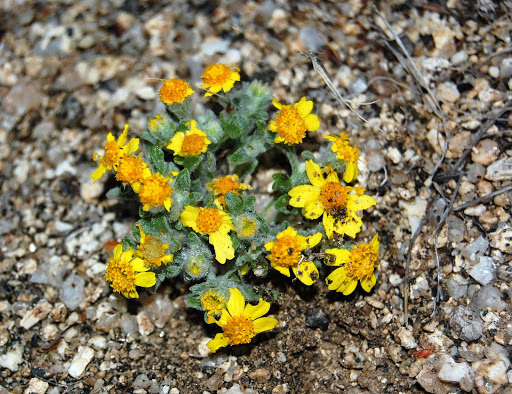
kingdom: Plantae
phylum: Tracheophyta
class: Magnoliopsida
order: Asterales
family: Asteraceae
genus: Eriophyllum
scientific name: Eriophyllum wallacei
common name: Wallace's woolly daisy
